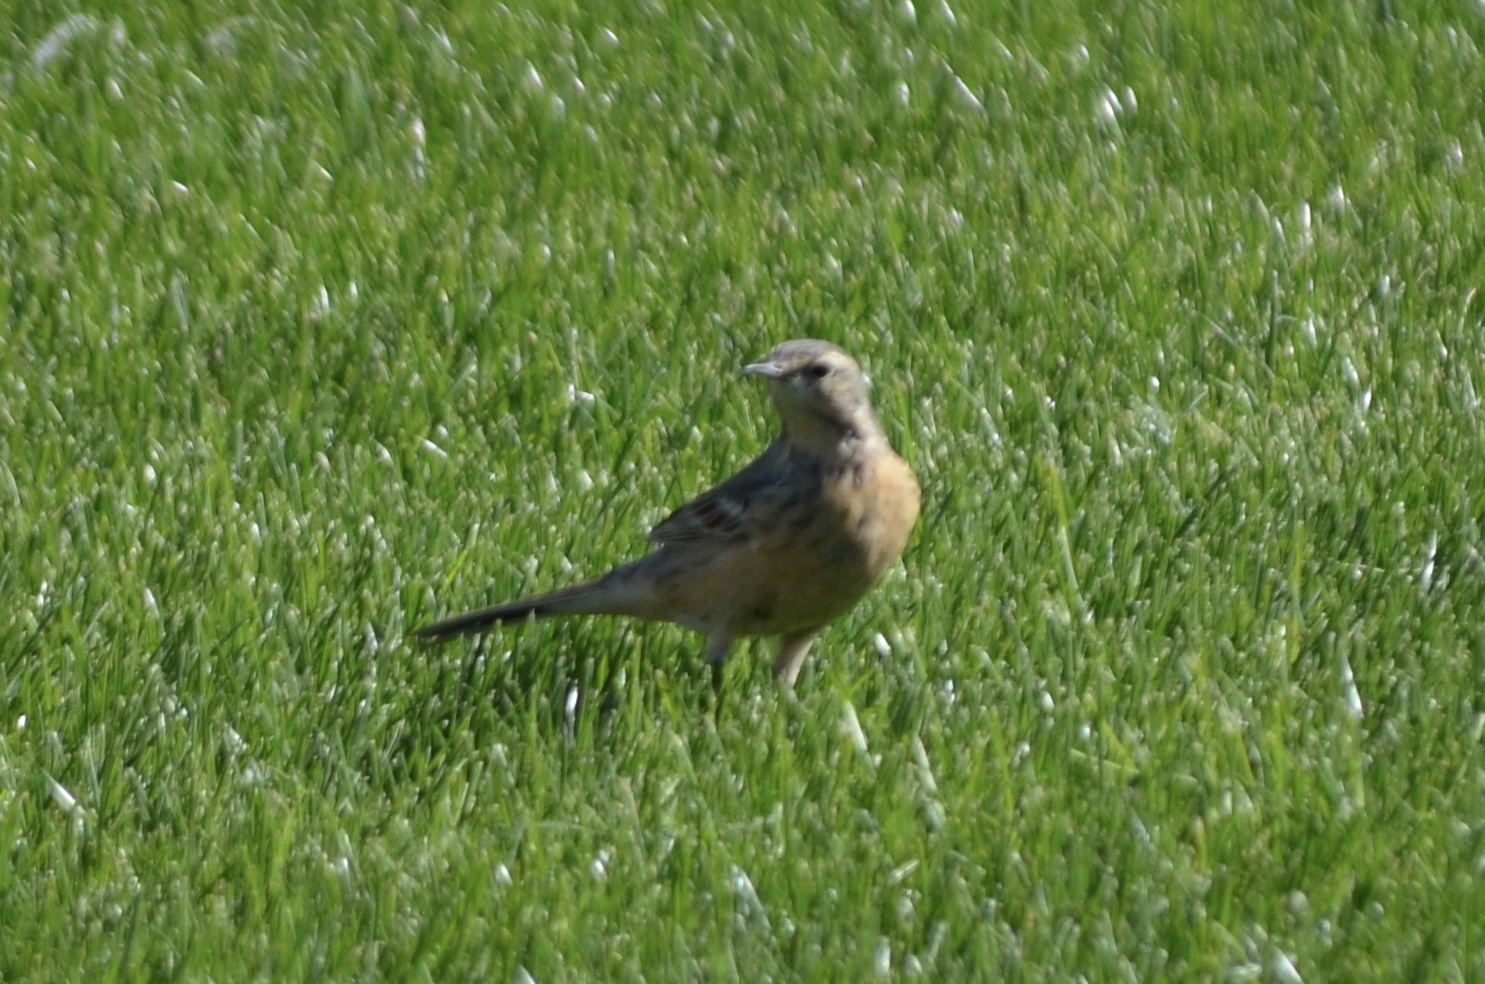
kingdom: Animalia
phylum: Chordata
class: Aves
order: Passeriformes
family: Motacillidae
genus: Anthus
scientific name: Anthus rubescens
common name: Buff-bellied pipit
